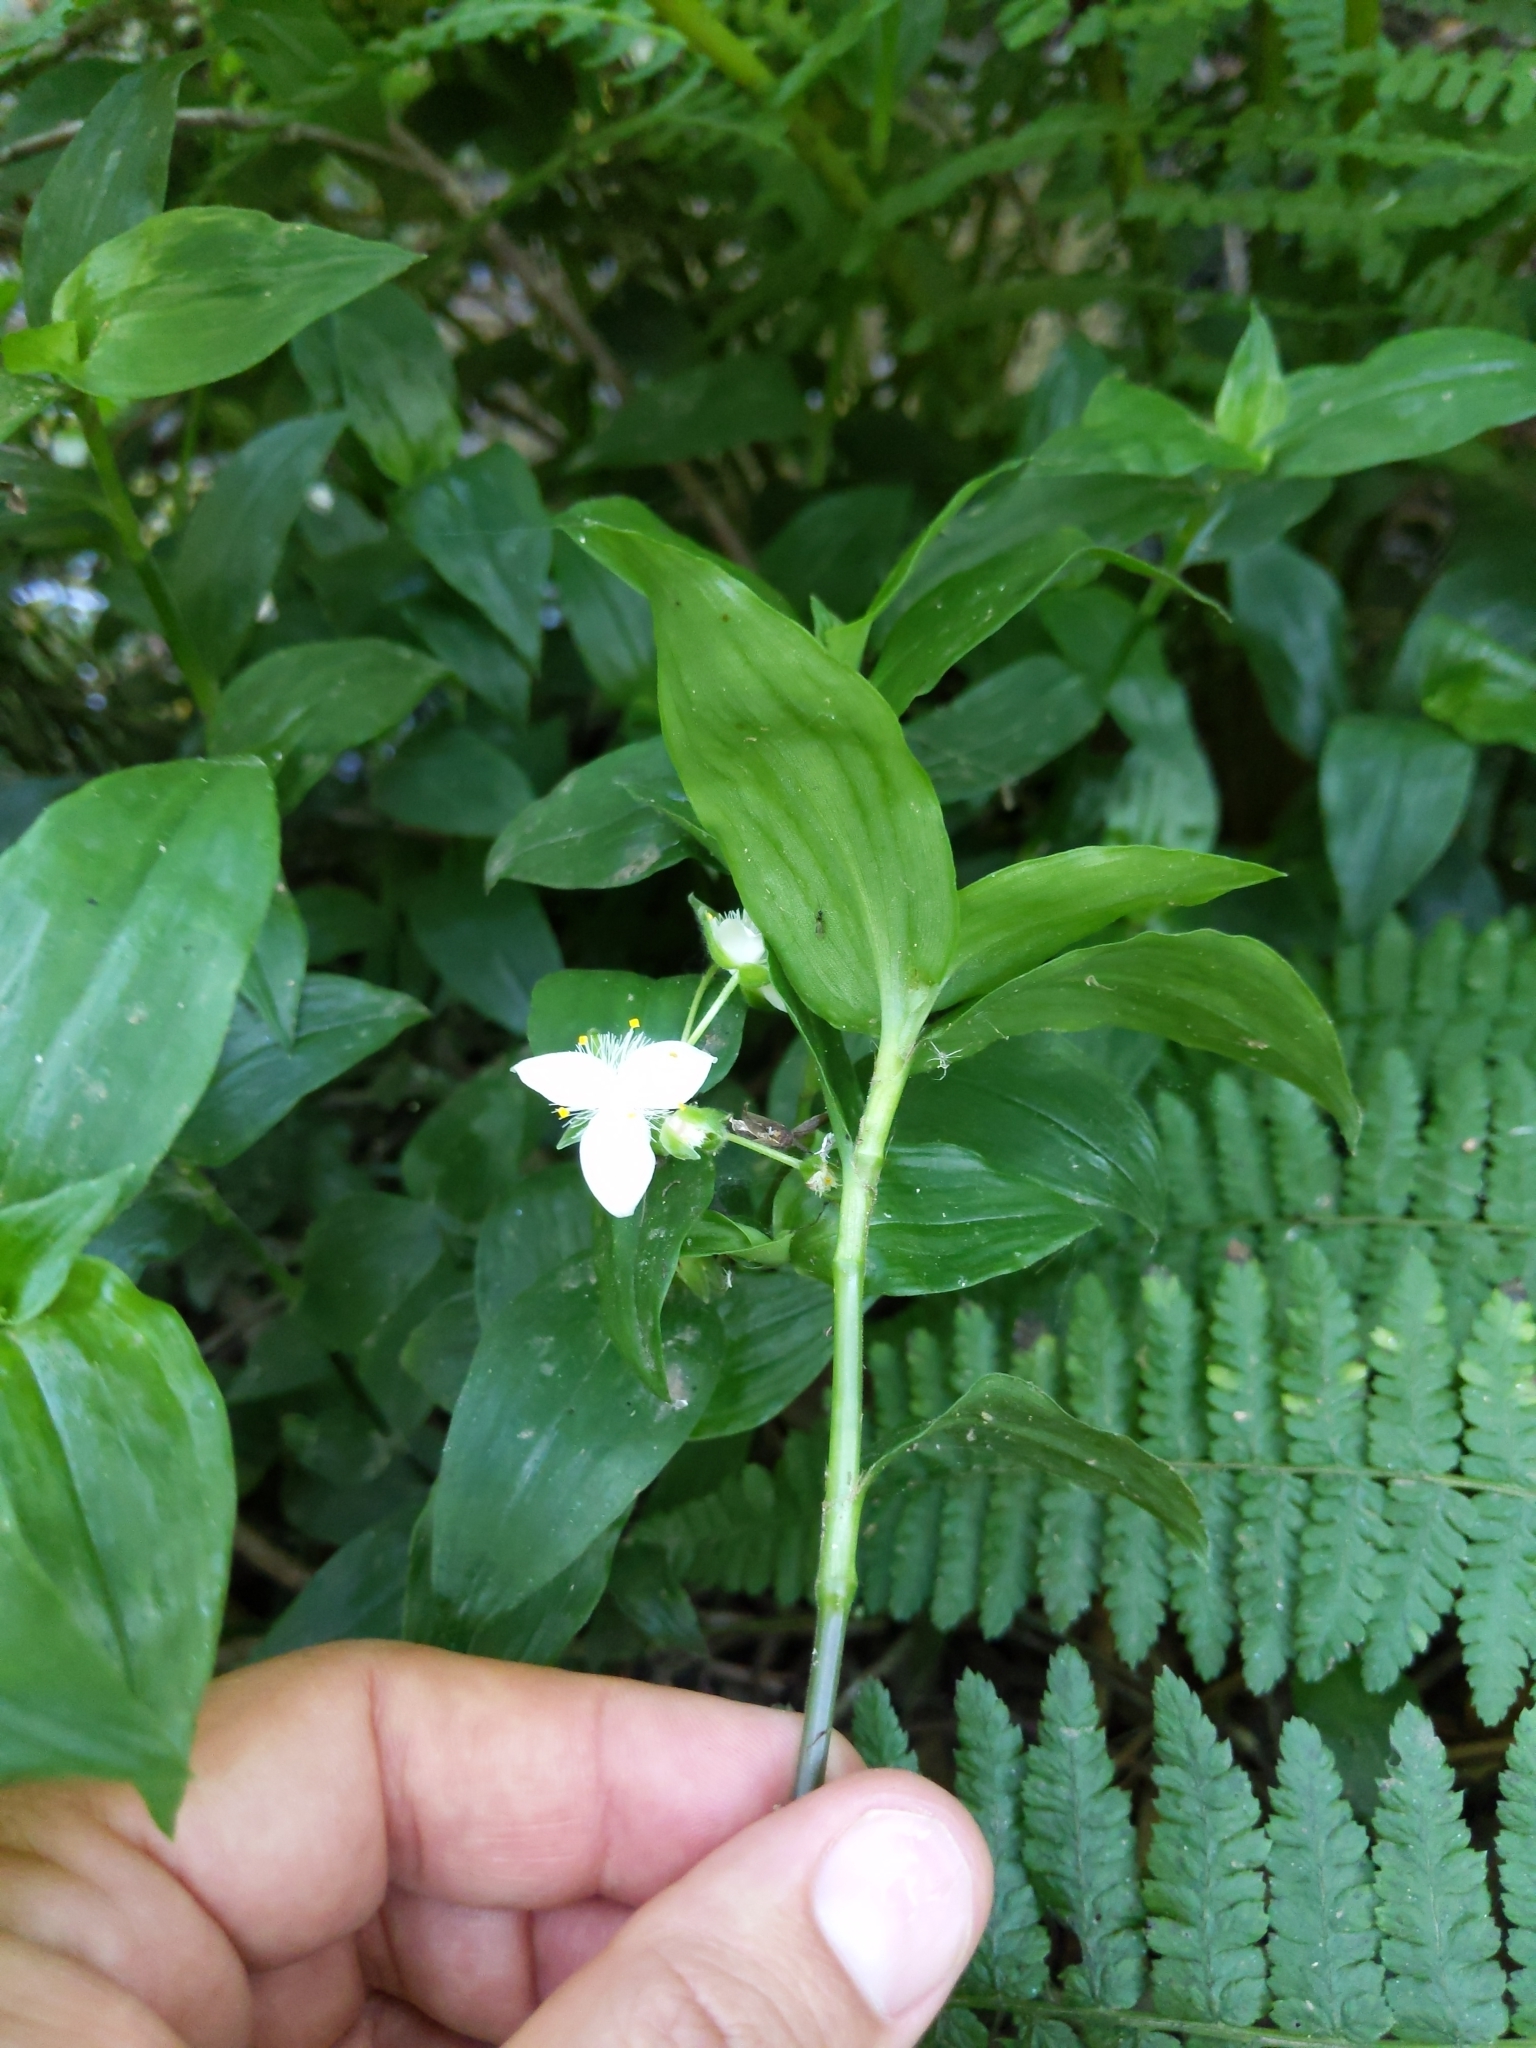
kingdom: Plantae
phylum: Tracheophyta
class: Liliopsida
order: Commelinales
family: Commelinaceae
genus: Tradescantia
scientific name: Tradescantia fluminensis
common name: Wandering-jew
